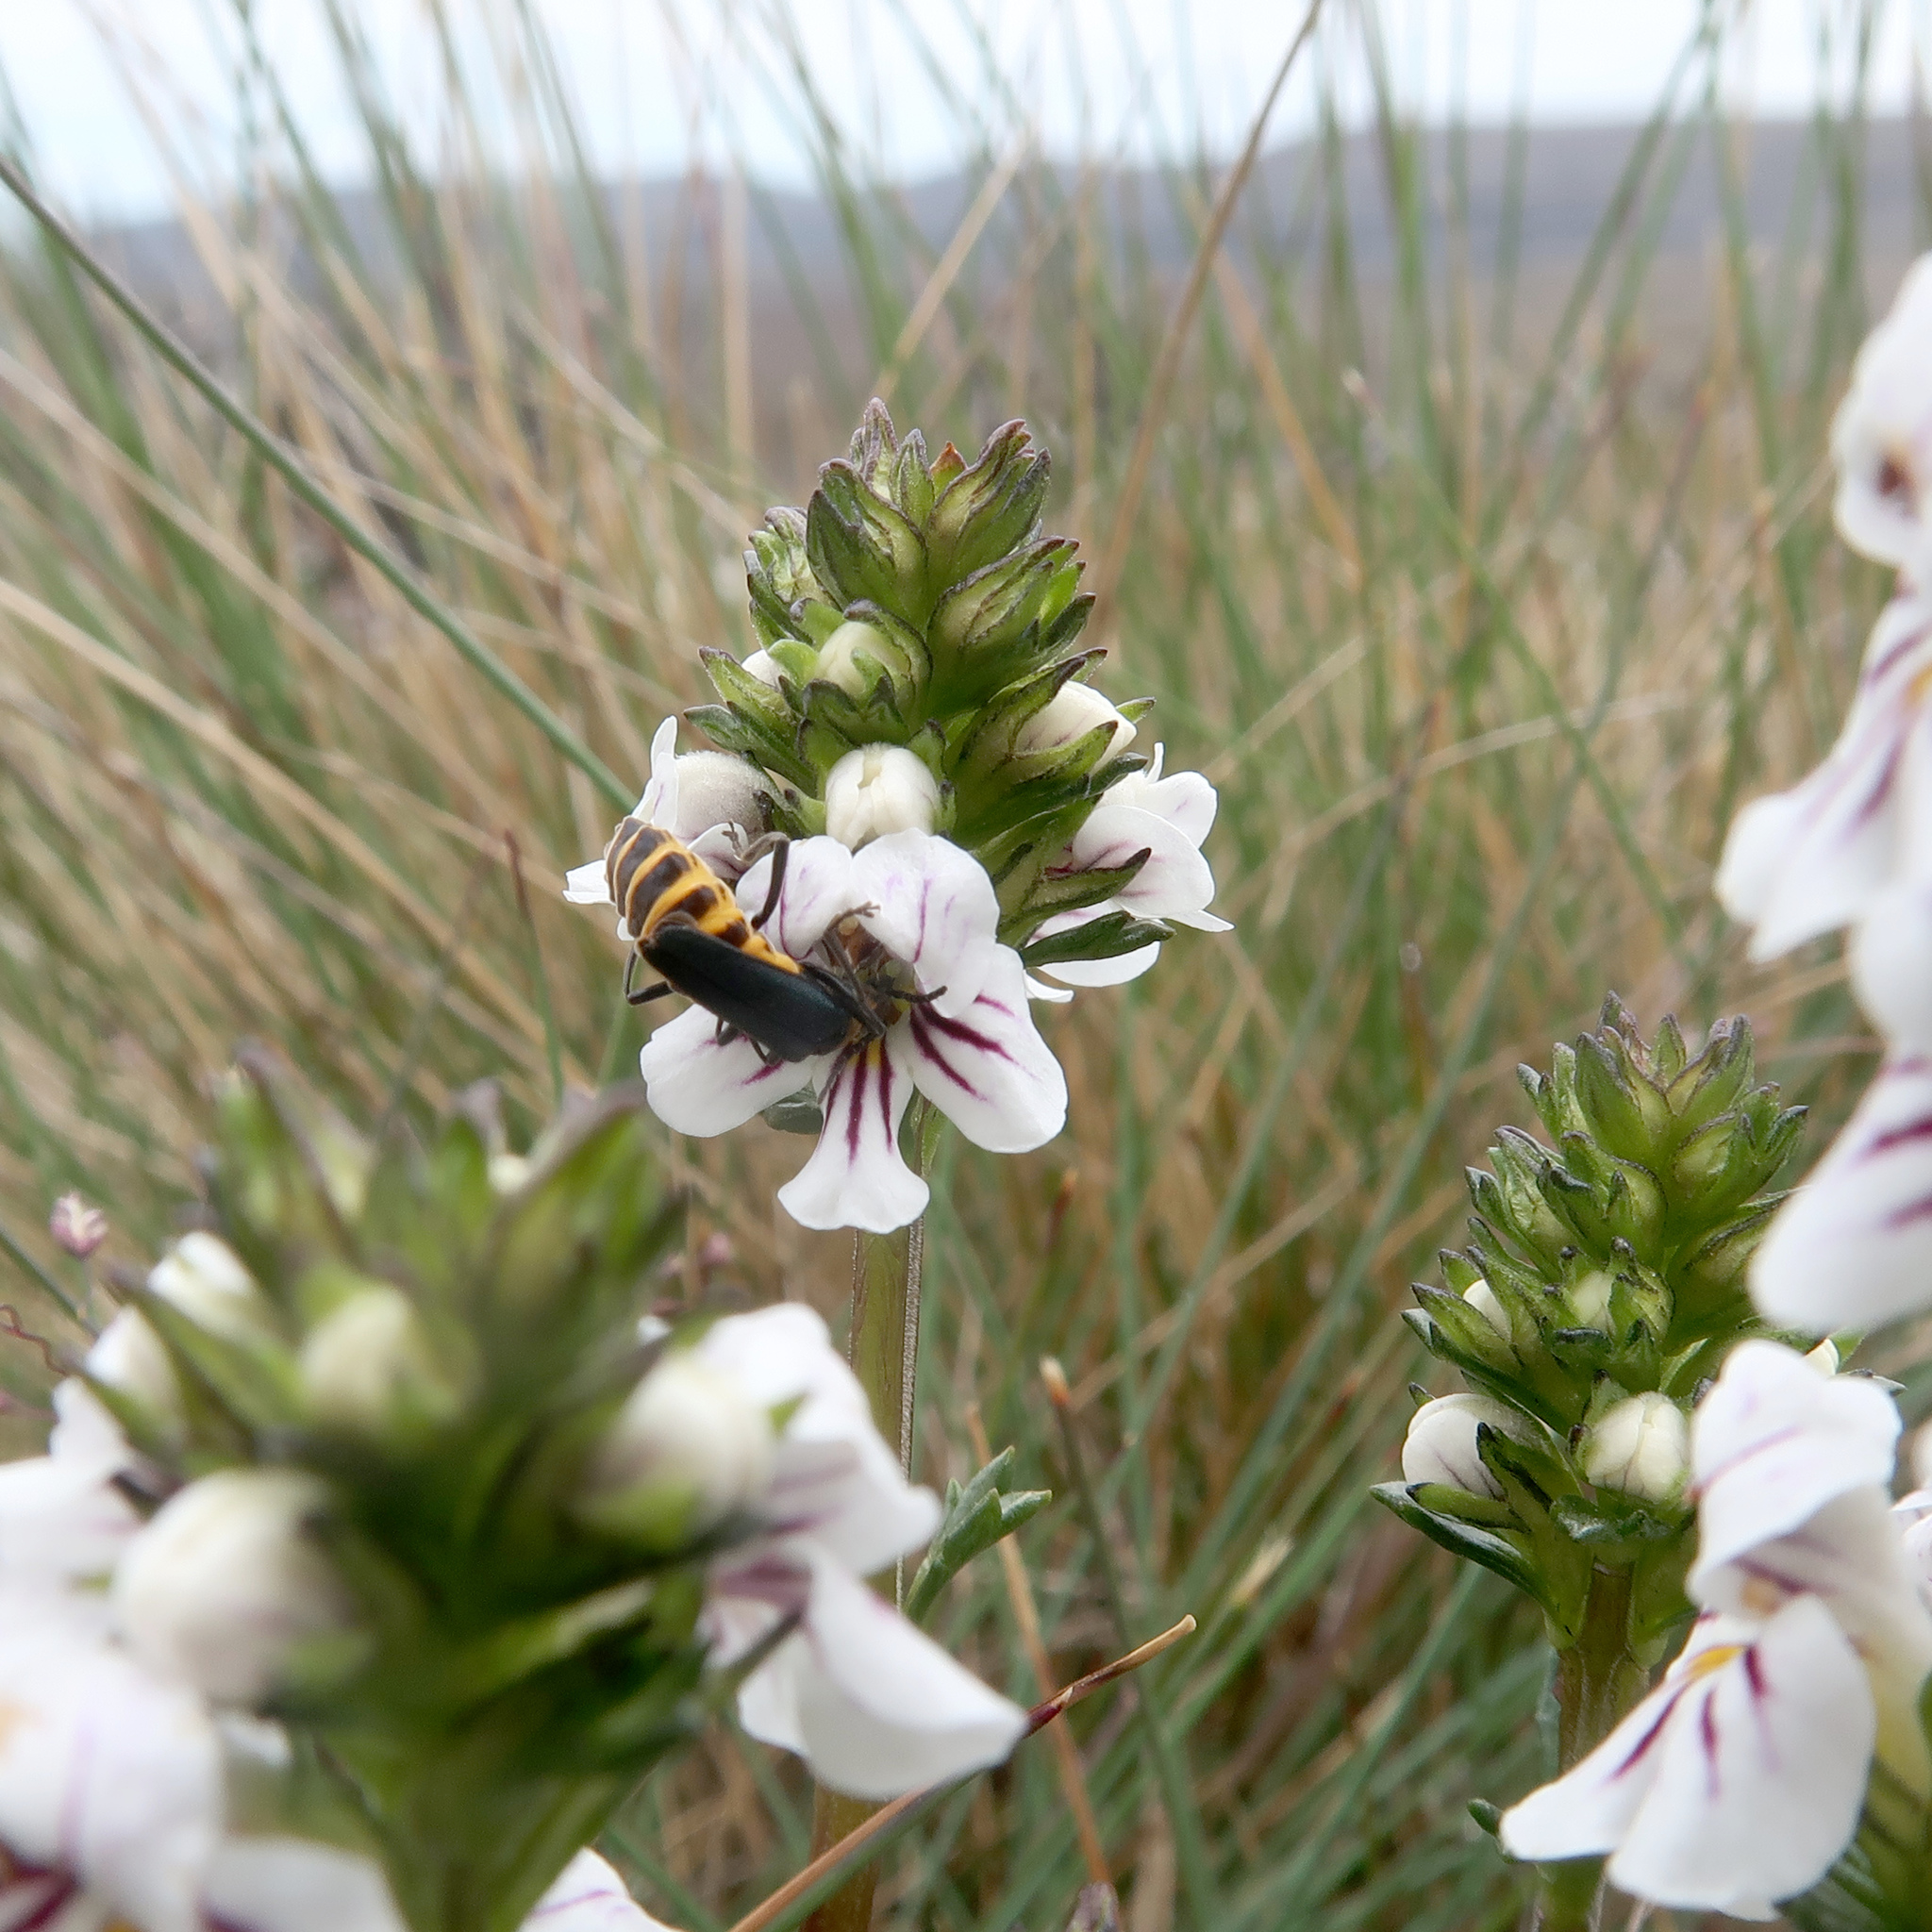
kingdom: Animalia
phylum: Arthropoda
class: Insecta
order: Coleoptera
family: Cantharidae
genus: Chauliognathus
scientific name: Chauliognathus
